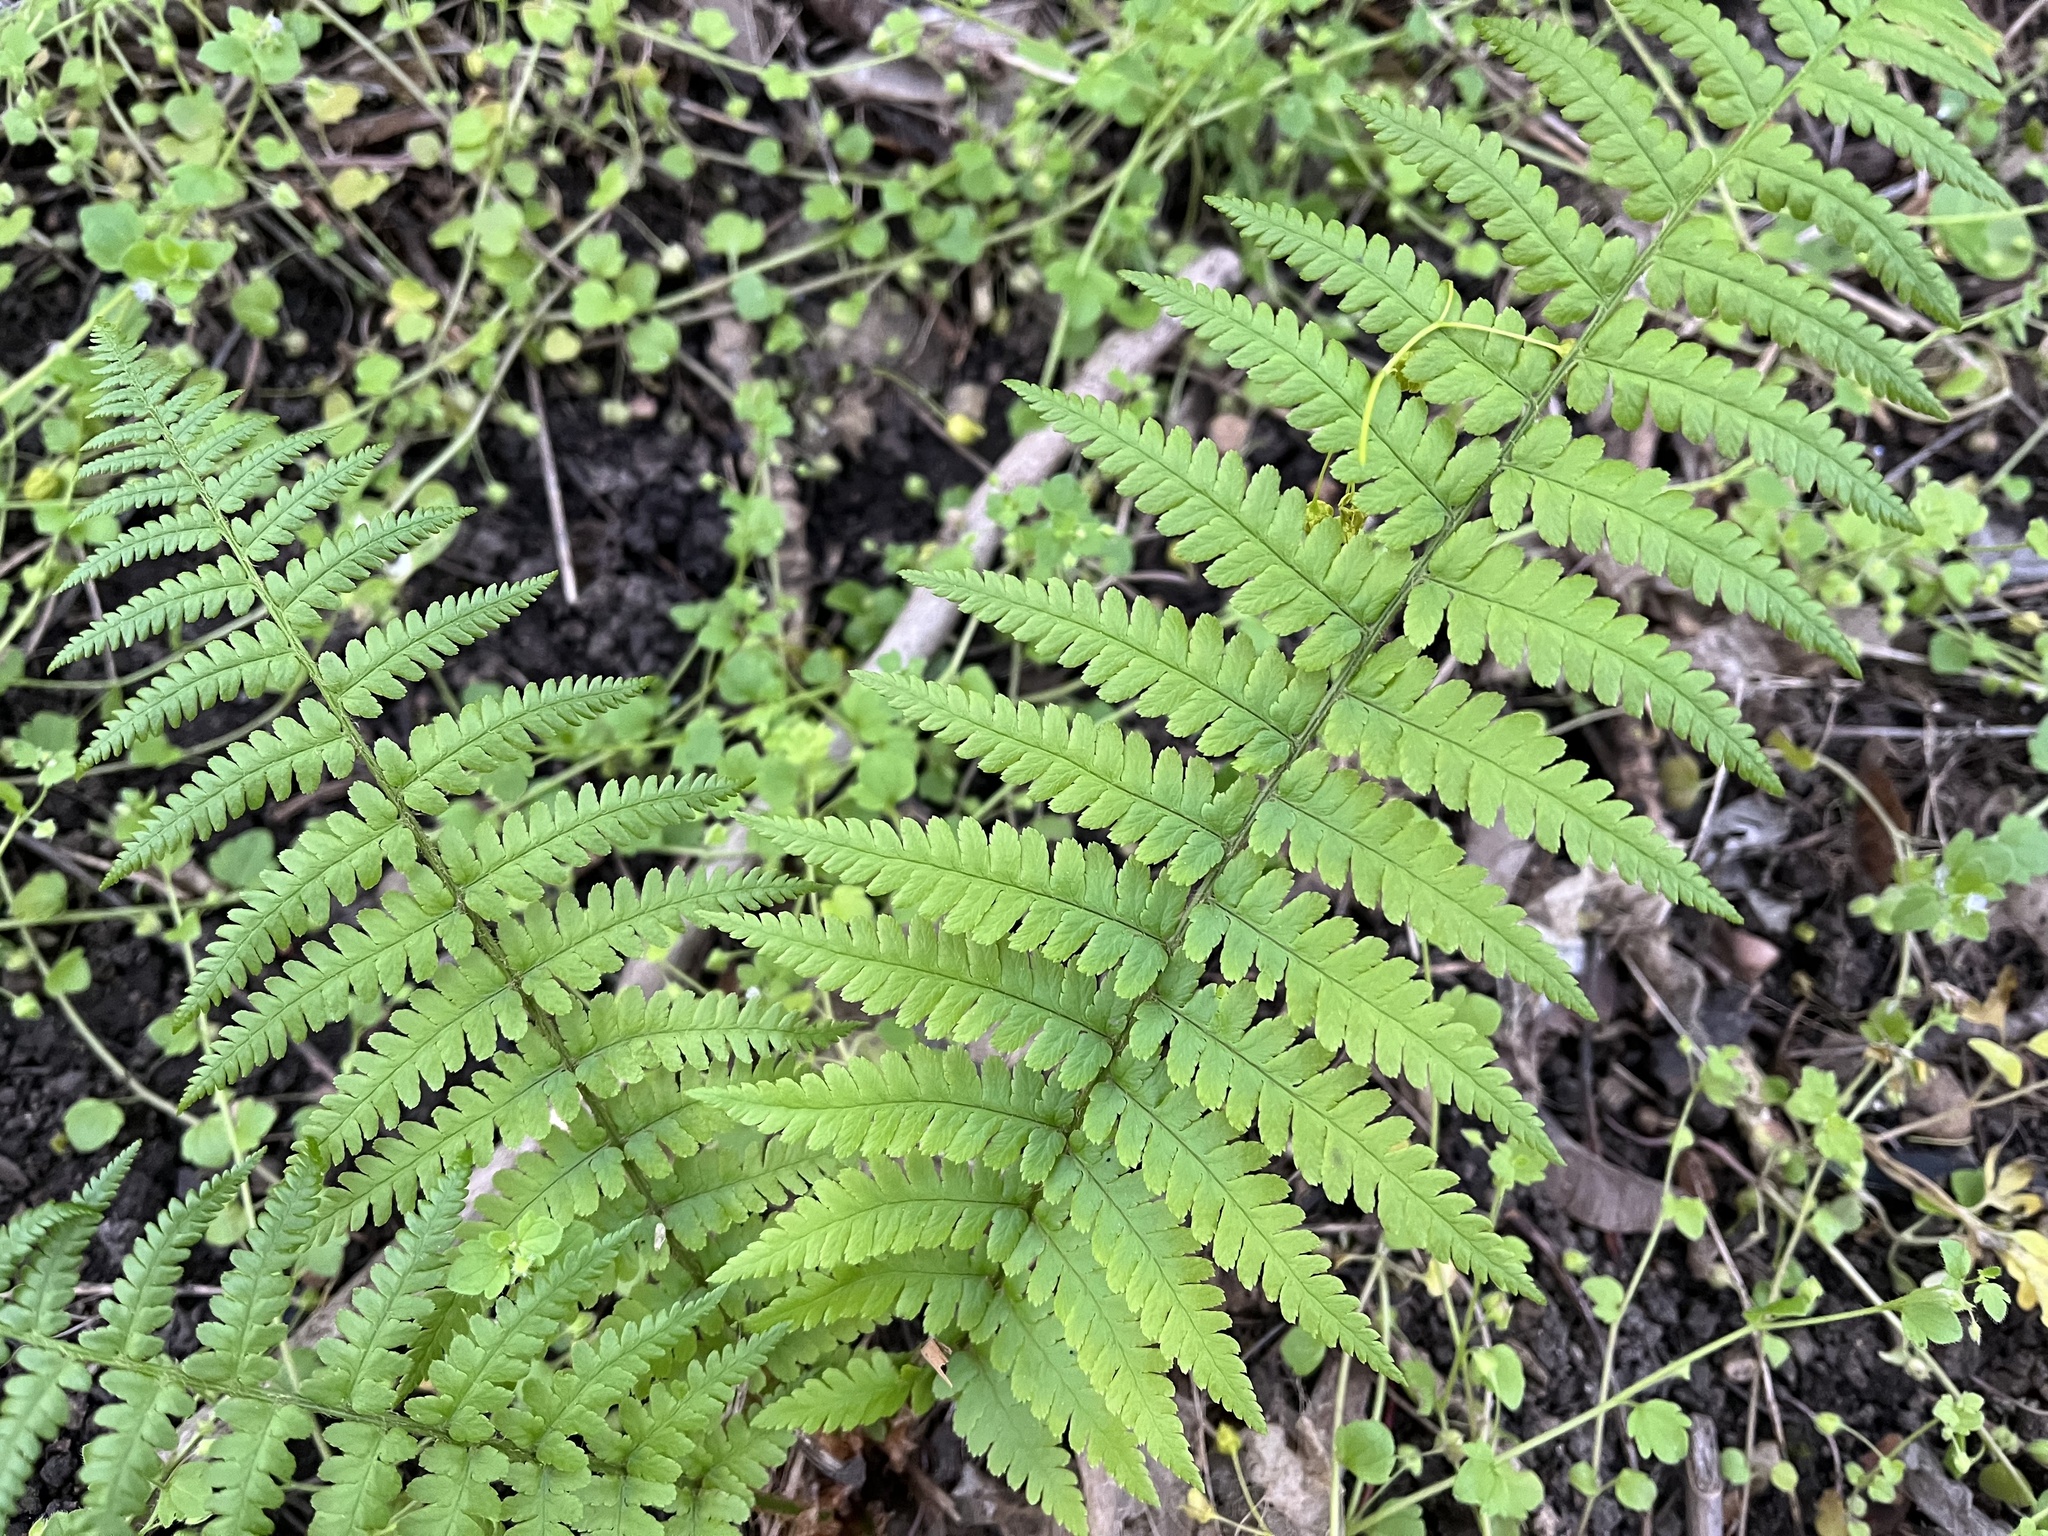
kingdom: Plantae
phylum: Tracheophyta
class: Polypodiopsida
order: Polypodiales
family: Dryopteridaceae
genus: Dryopteris
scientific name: Dryopteris filix-mas
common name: Male fern
